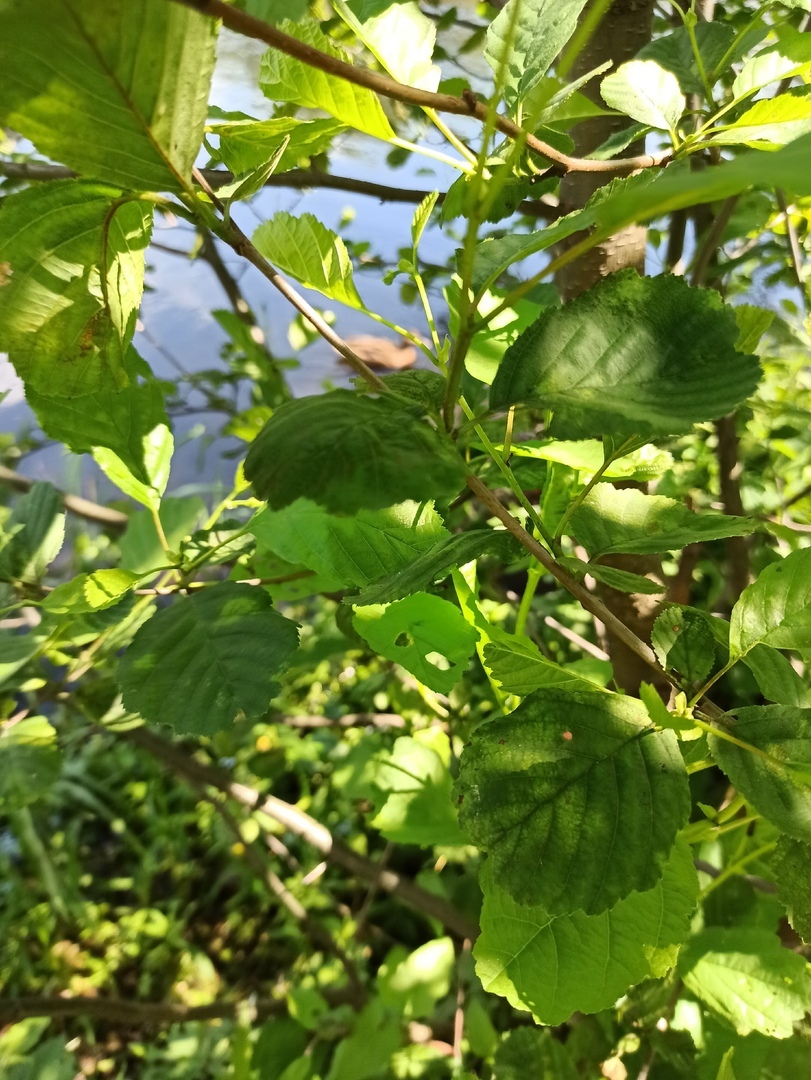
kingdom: Plantae
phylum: Tracheophyta
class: Magnoliopsida
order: Fagales
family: Betulaceae
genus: Alnus
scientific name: Alnus glutinosa
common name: Black alder
